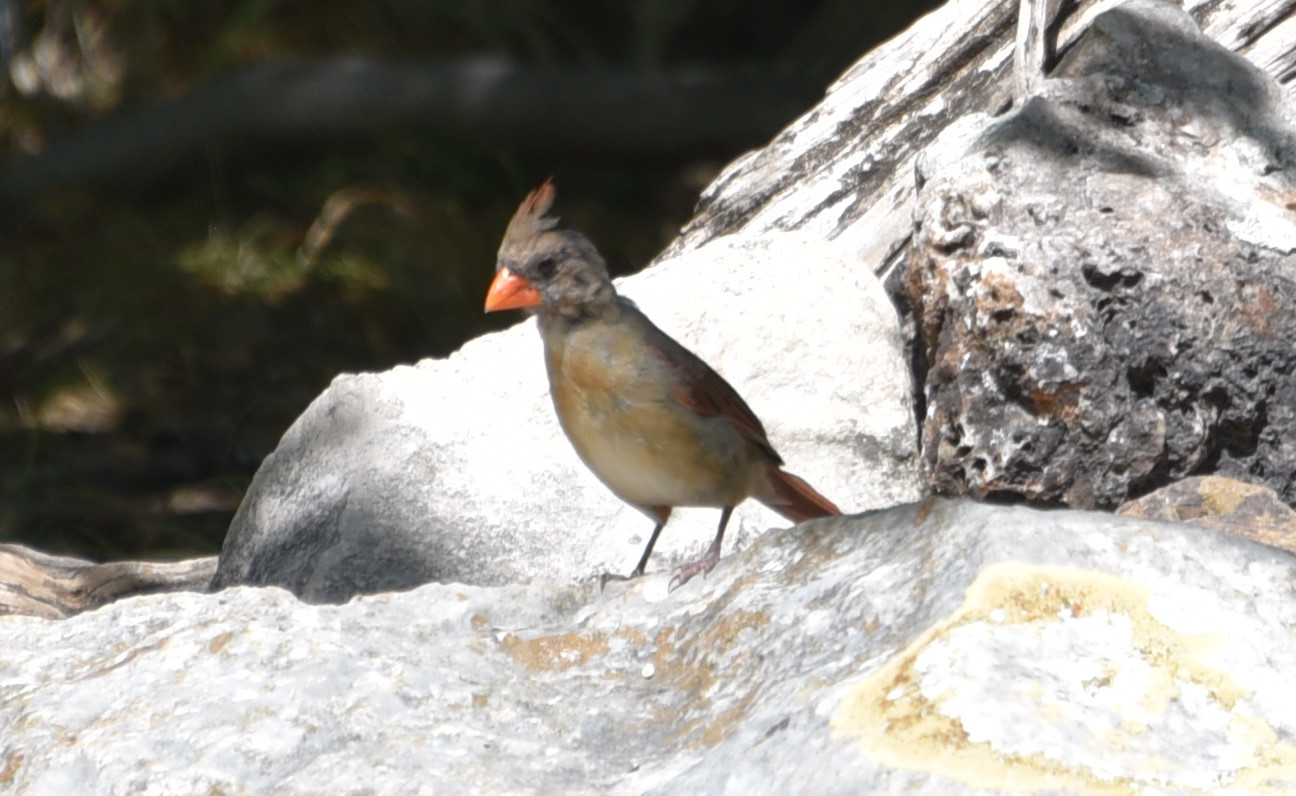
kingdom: Animalia
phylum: Chordata
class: Aves
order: Passeriformes
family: Cardinalidae
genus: Cardinalis
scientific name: Cardinalis cardinalis
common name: Northern cardinal
